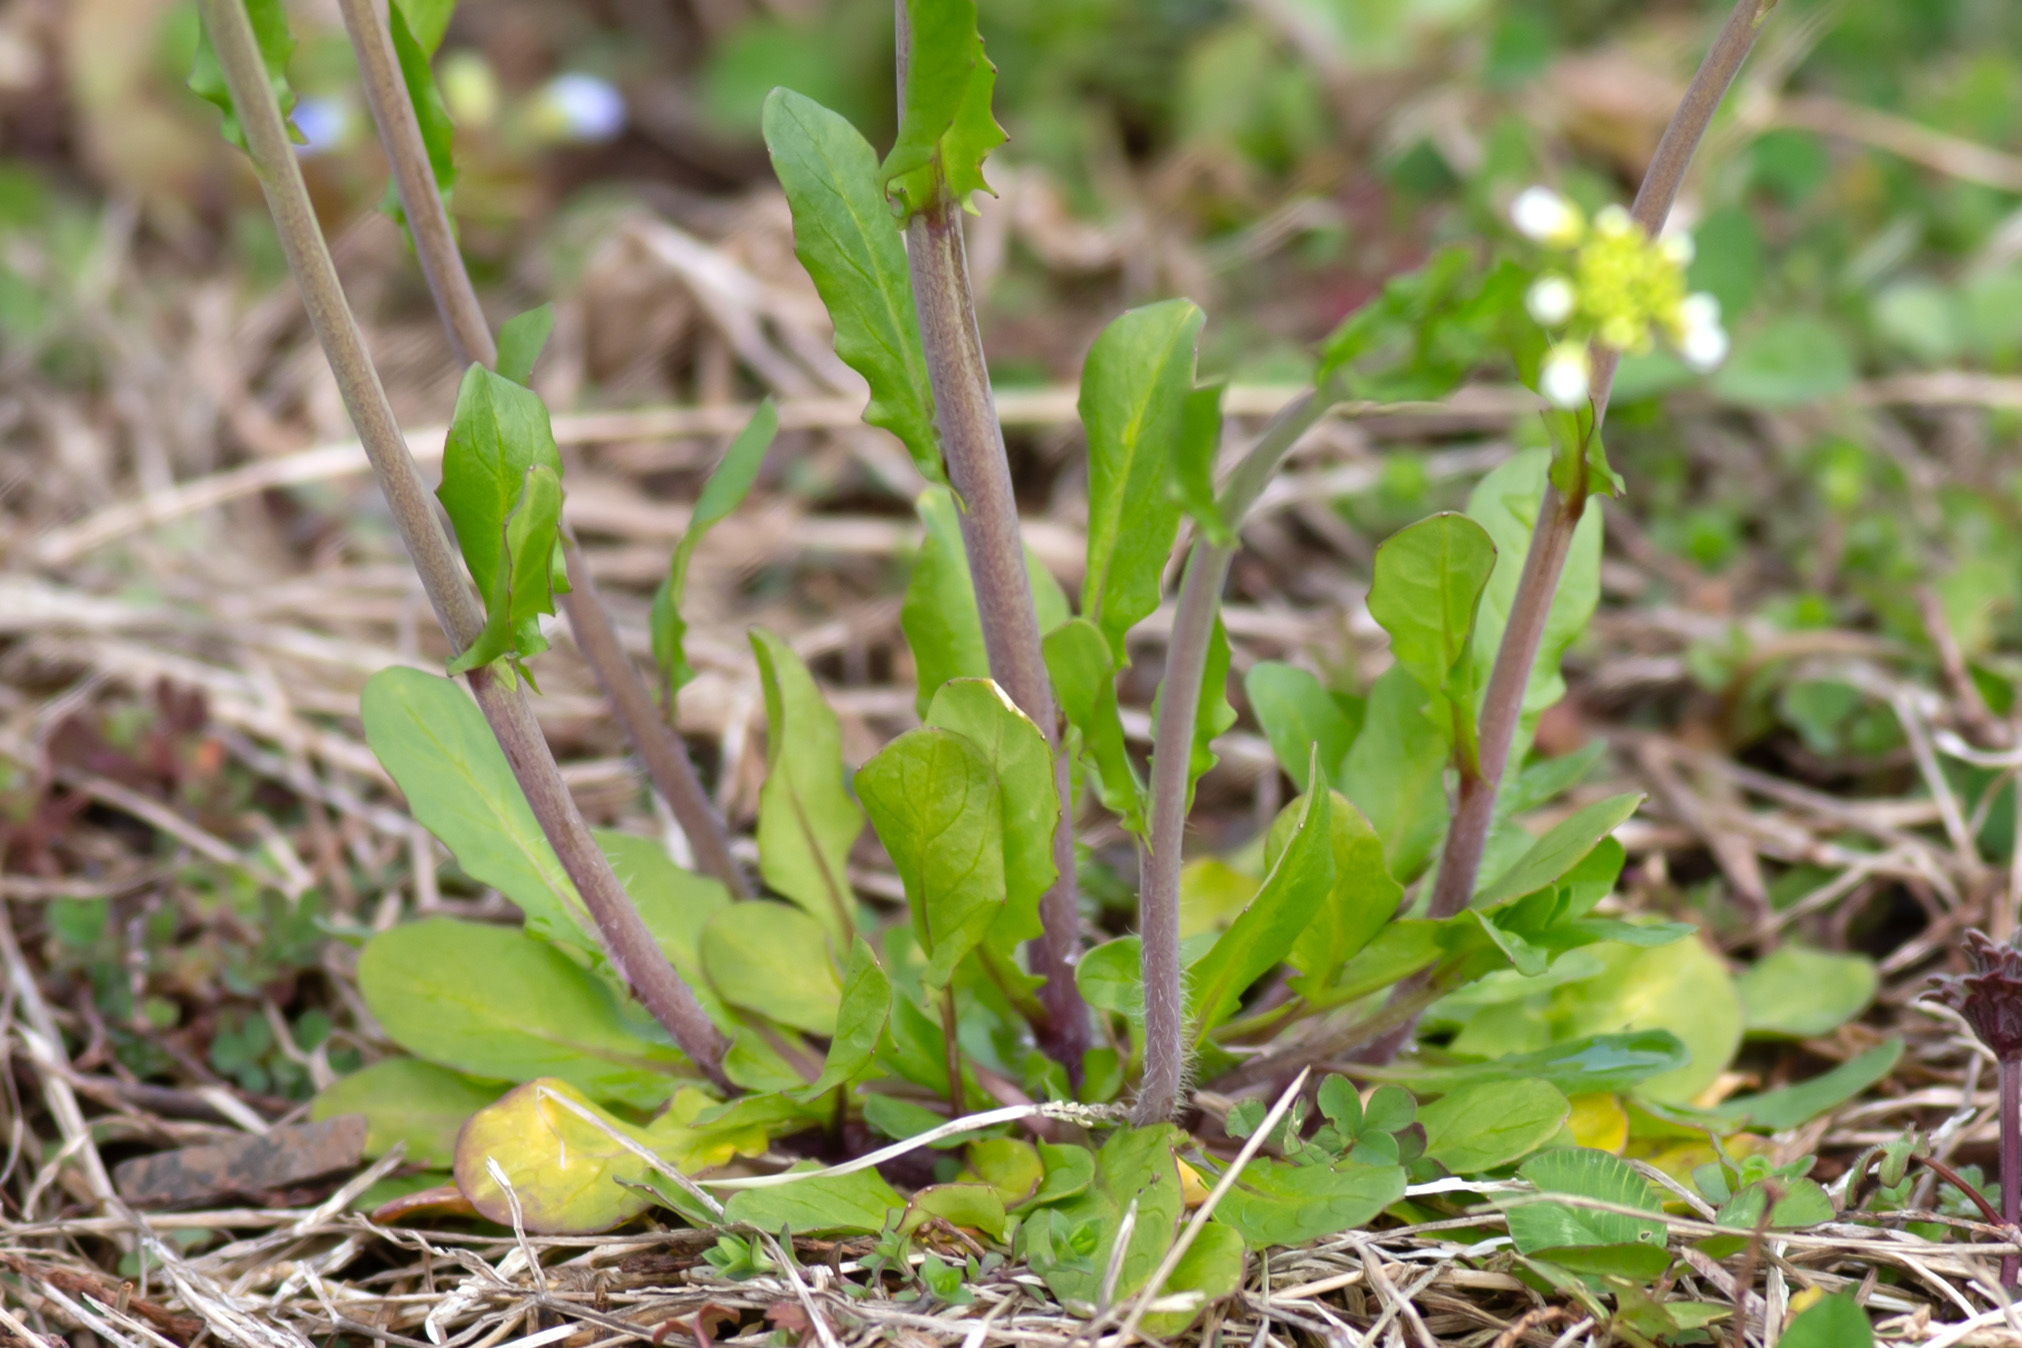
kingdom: Plantae
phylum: Tracheophyta
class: Magnoliopsida
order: Brassicales
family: Brassicaceae
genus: Mummenhoffia
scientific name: Mummenhoffia alliacea
